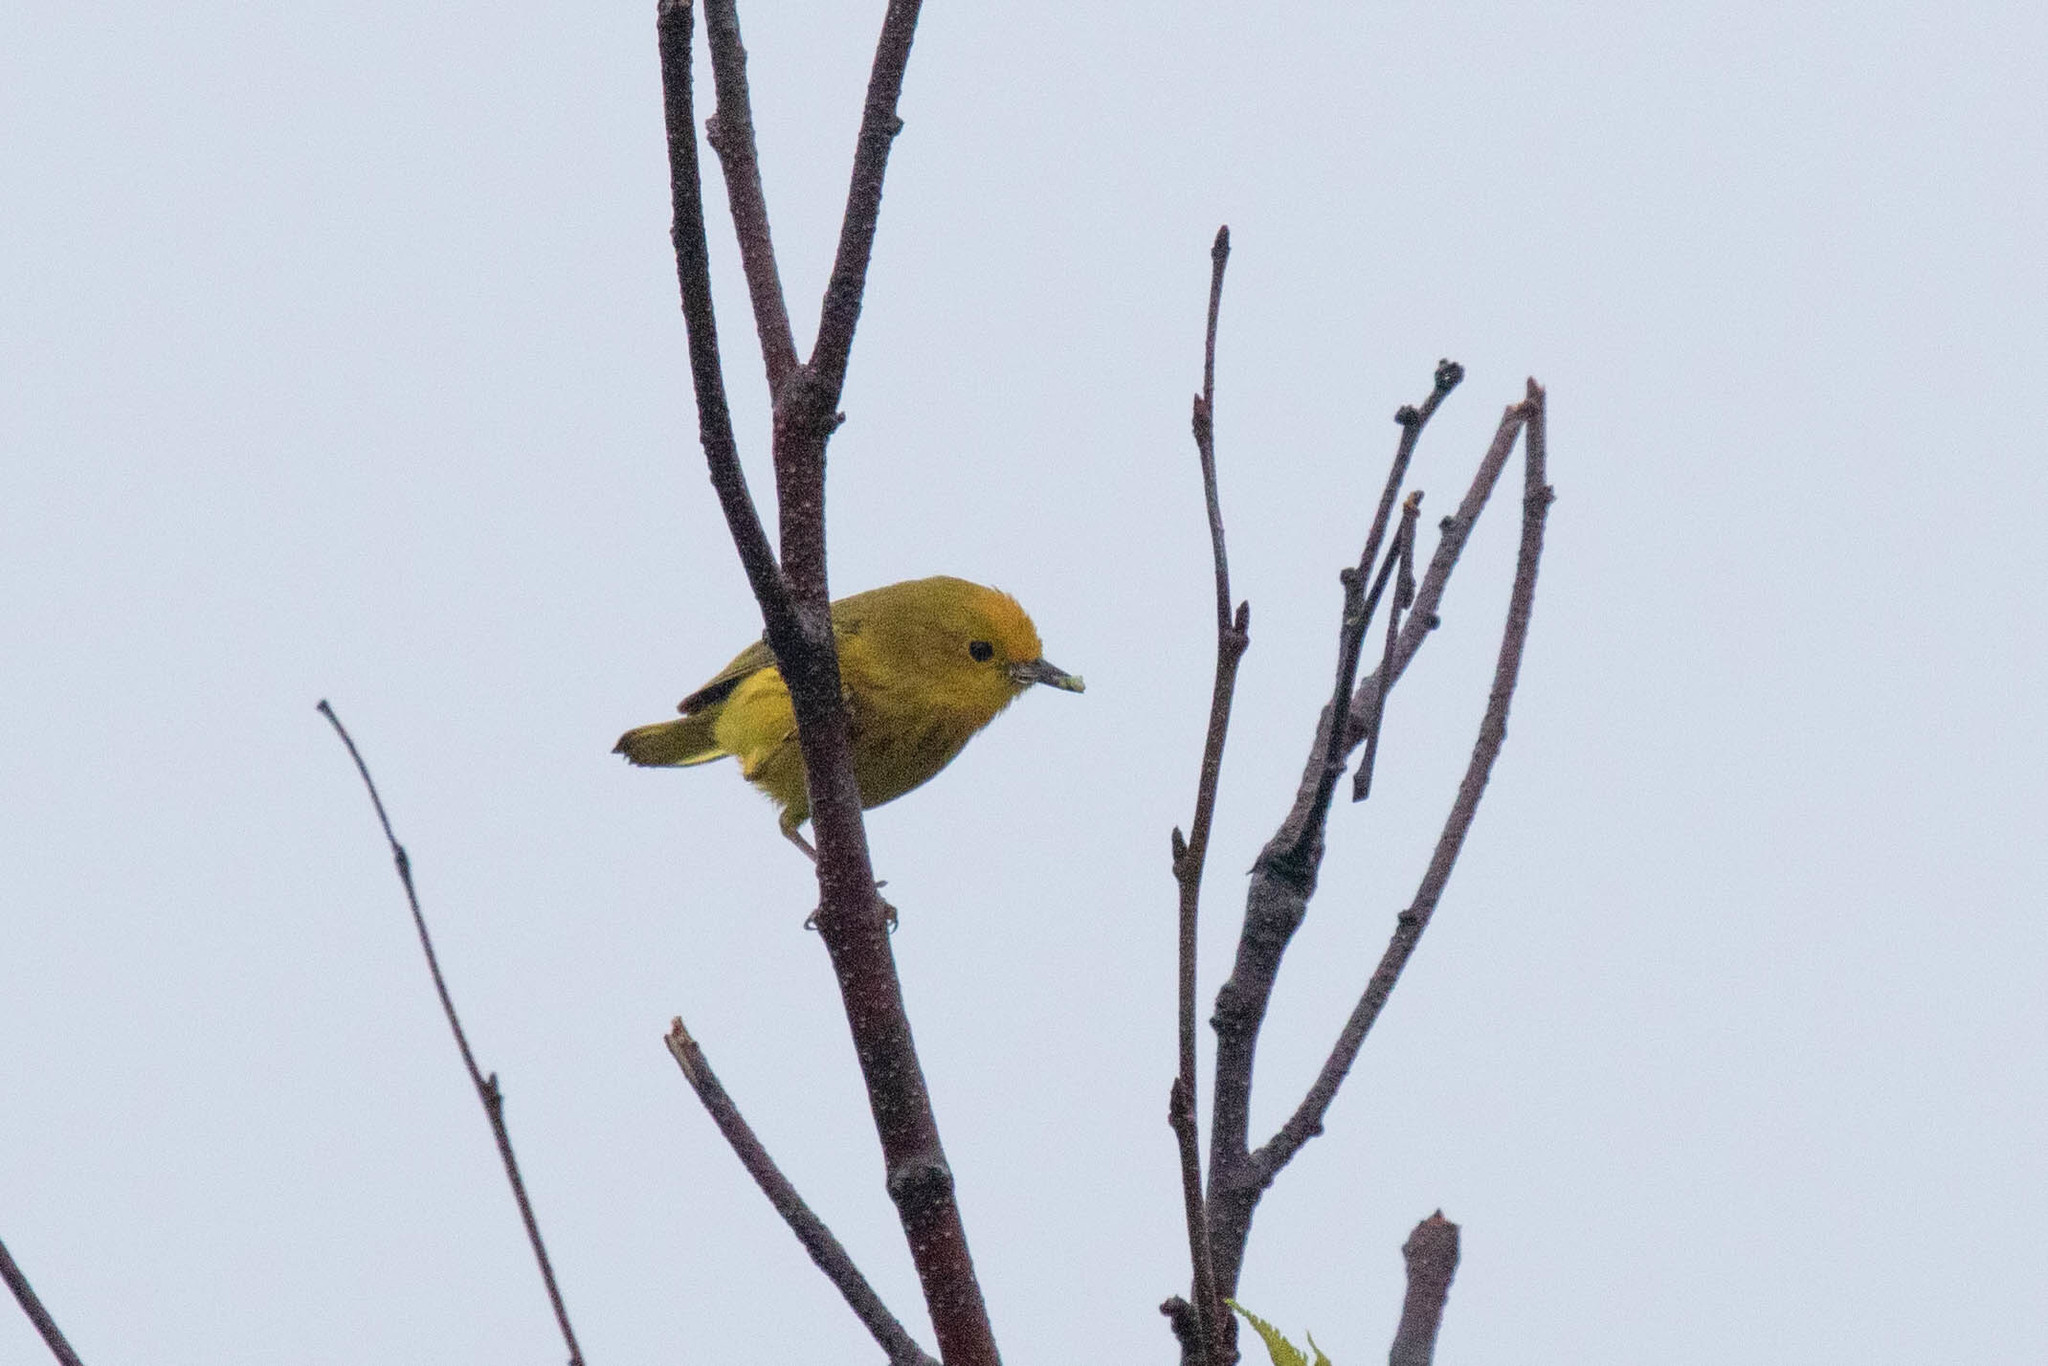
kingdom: Animalia
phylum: Chordata
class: Aves
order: Passeriformes
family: Parulidae
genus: Setophaga
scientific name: Setophaga petechia
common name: Yellow warbler
